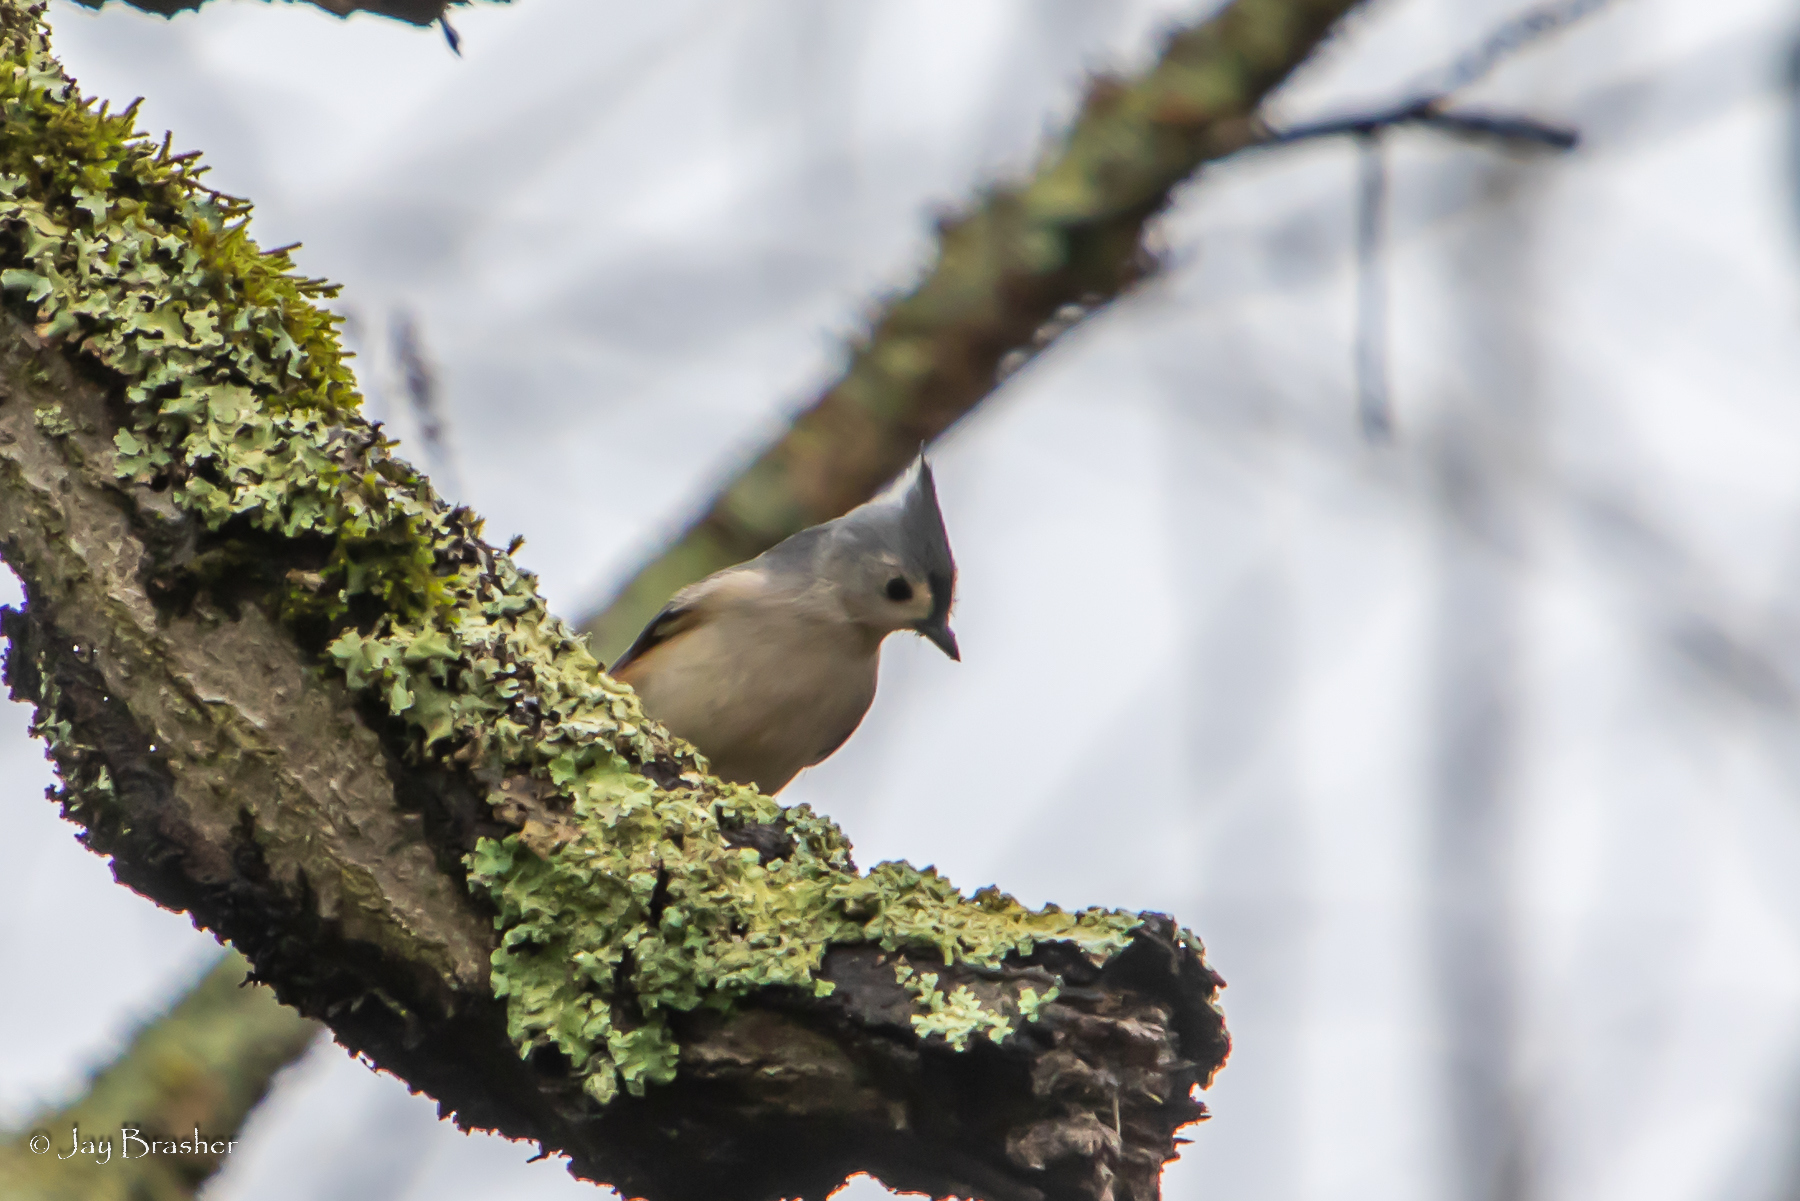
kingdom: Animalia
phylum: Chordata
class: Aves
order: Passeriformes
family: Paridae
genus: Baeolophus
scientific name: Baeolophus bicolor
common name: Tufted titmouse
